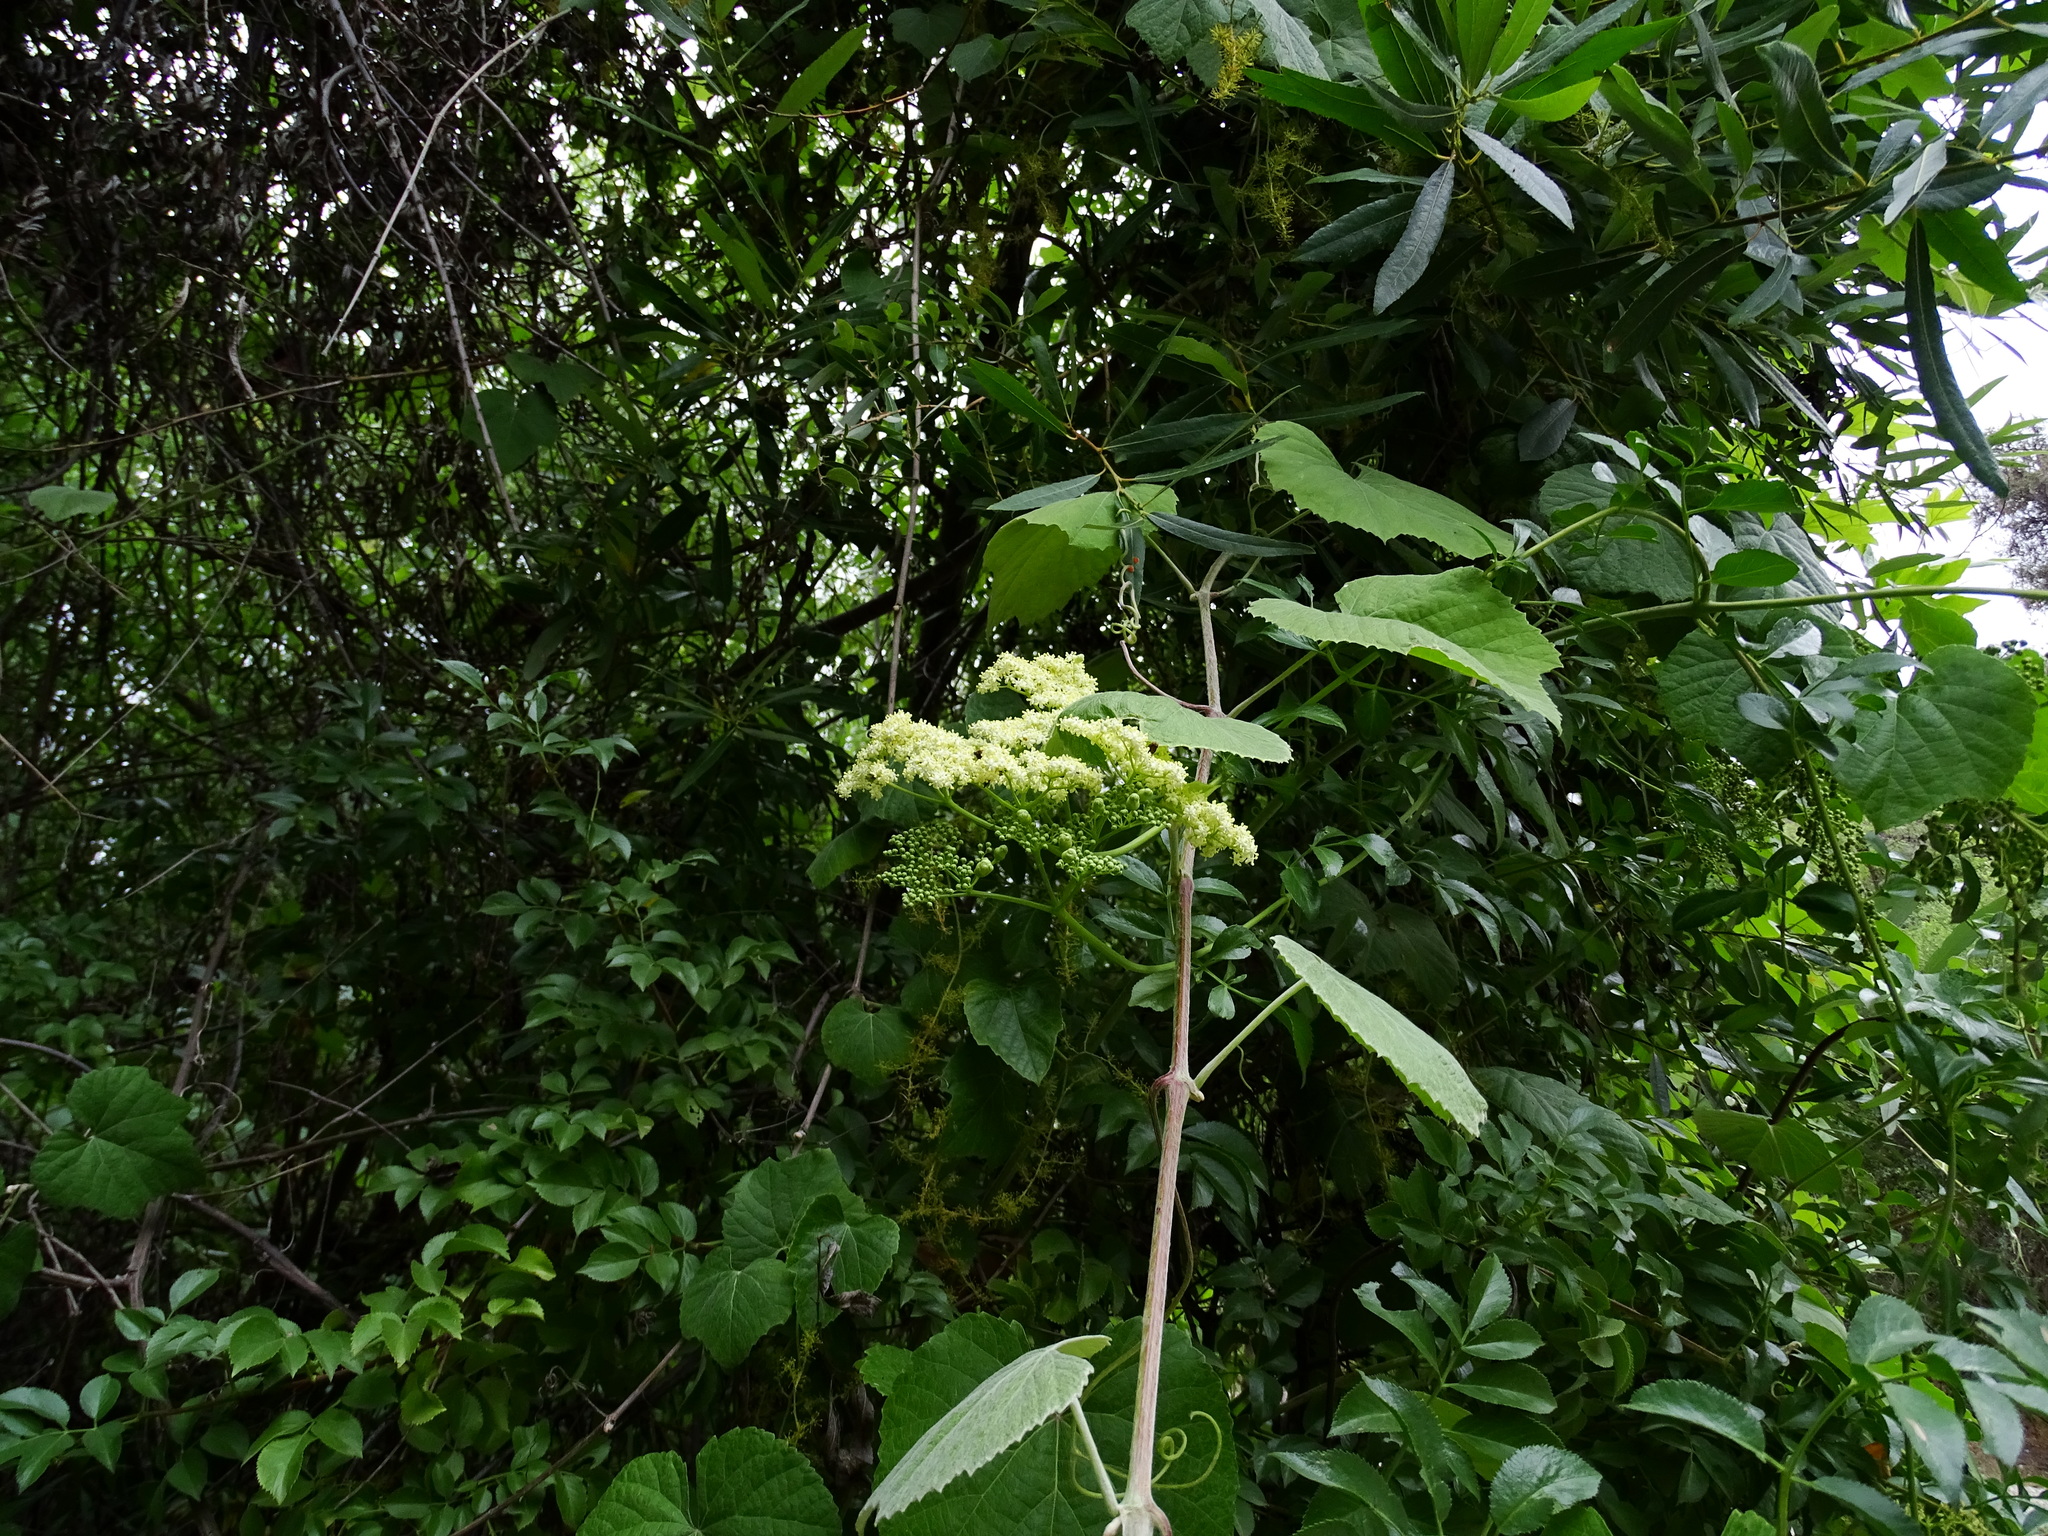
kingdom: Plantae
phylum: Tracheophyta
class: Magnoliopsida
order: Dipsacales
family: Viburnaceae
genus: Sambucus
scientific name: Sambucus cerulea
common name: Blue elder
